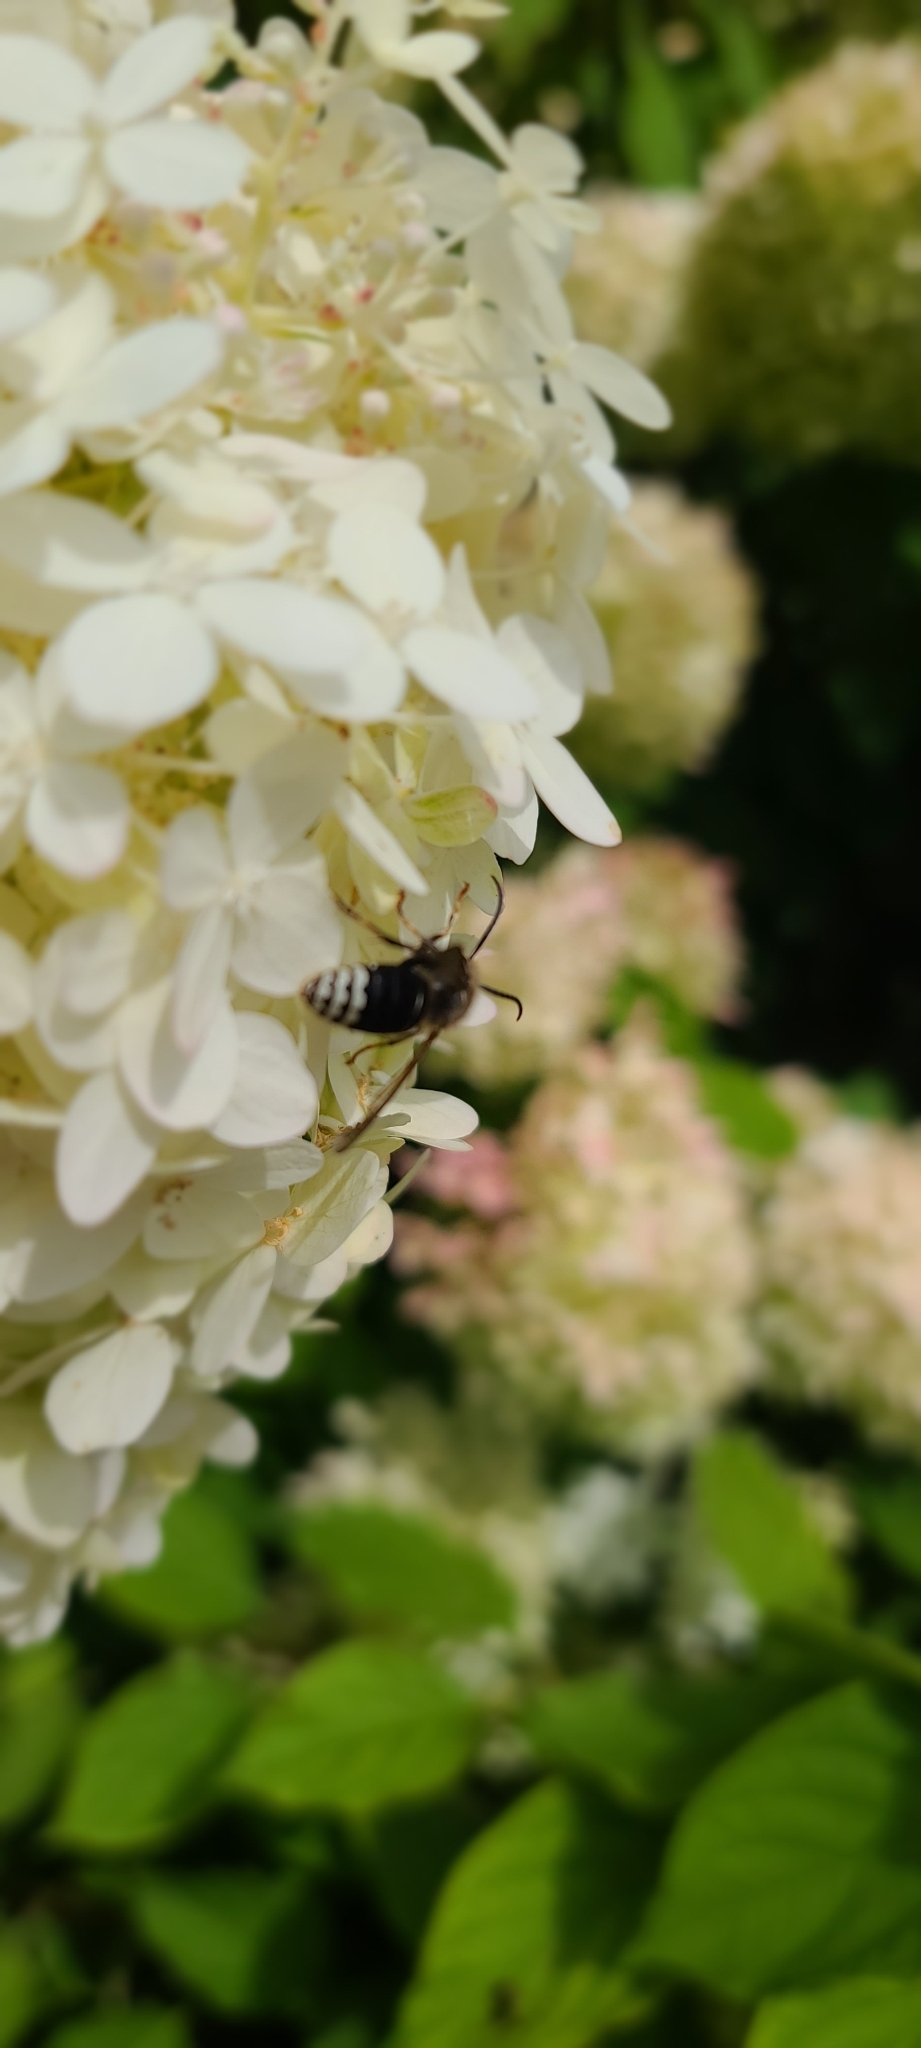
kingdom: Animalia
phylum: Arthropoda
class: Insecta
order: Hymenoptera
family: Vespidae
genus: Dolichovespula
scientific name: Dolichovespula maculata
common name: Bald-faced hornet
